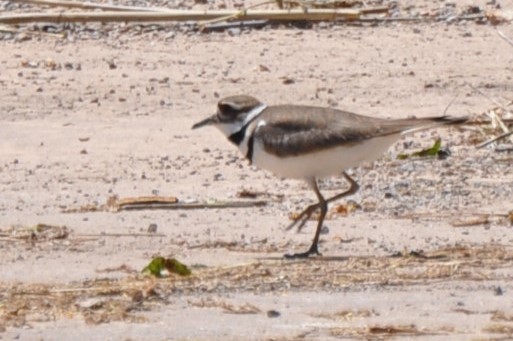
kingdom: Animalia
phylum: Chordata
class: Aves
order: Charadriiformes
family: Charadriidae
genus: Charadrius
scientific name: Charadrius vociferus
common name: Killdeer
